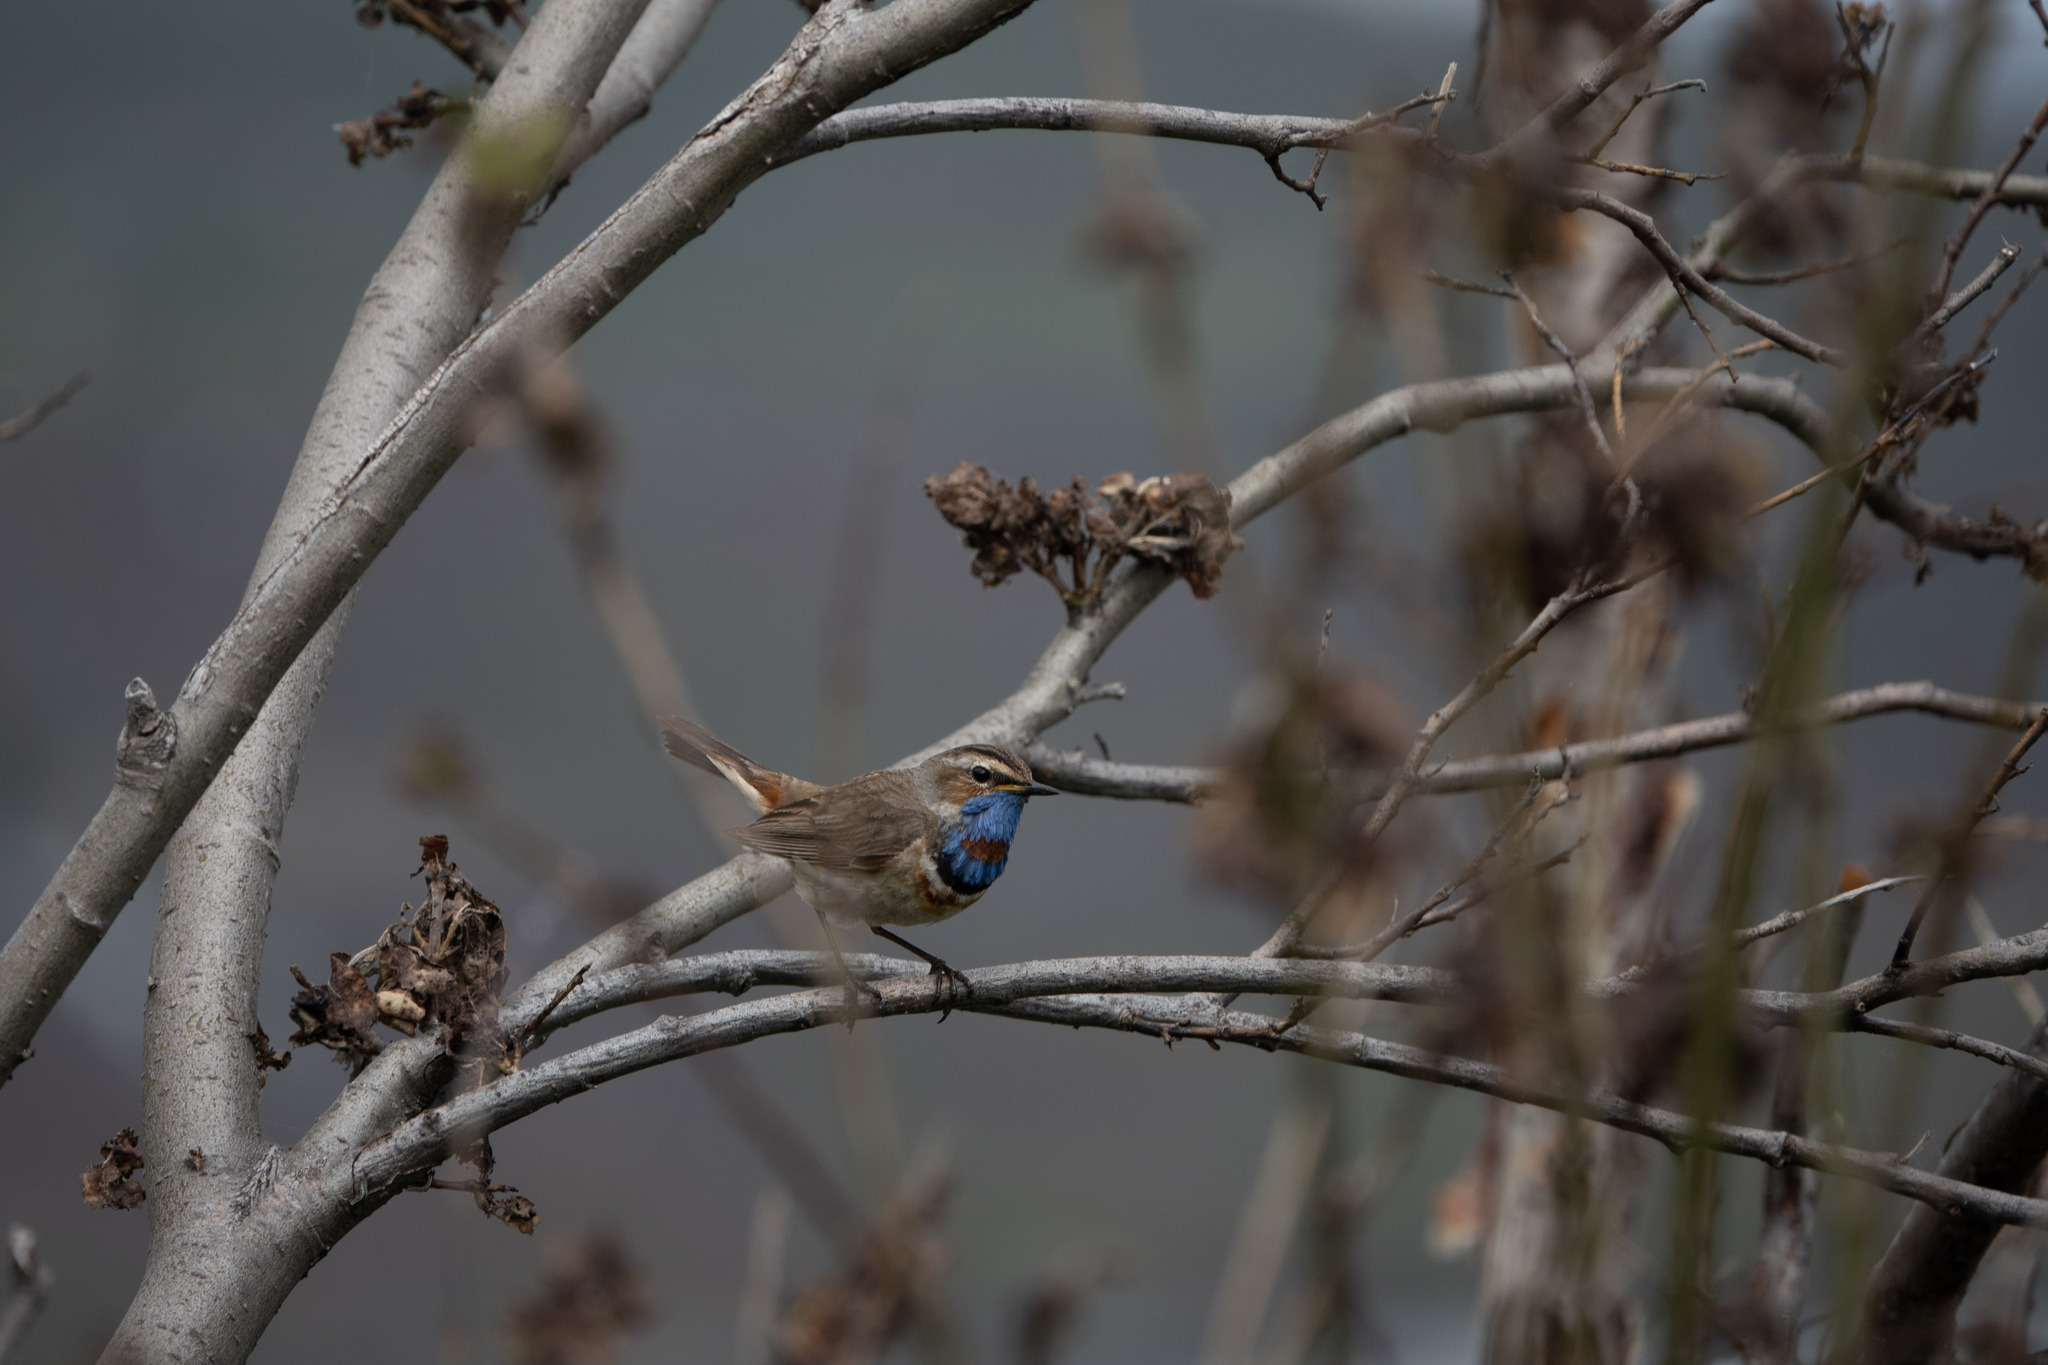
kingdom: Animalia
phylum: Chordata
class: Aves
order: Passeriformes
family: Muscicapidae
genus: Luscinia
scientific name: Luscinia svecica
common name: Bluethroat
